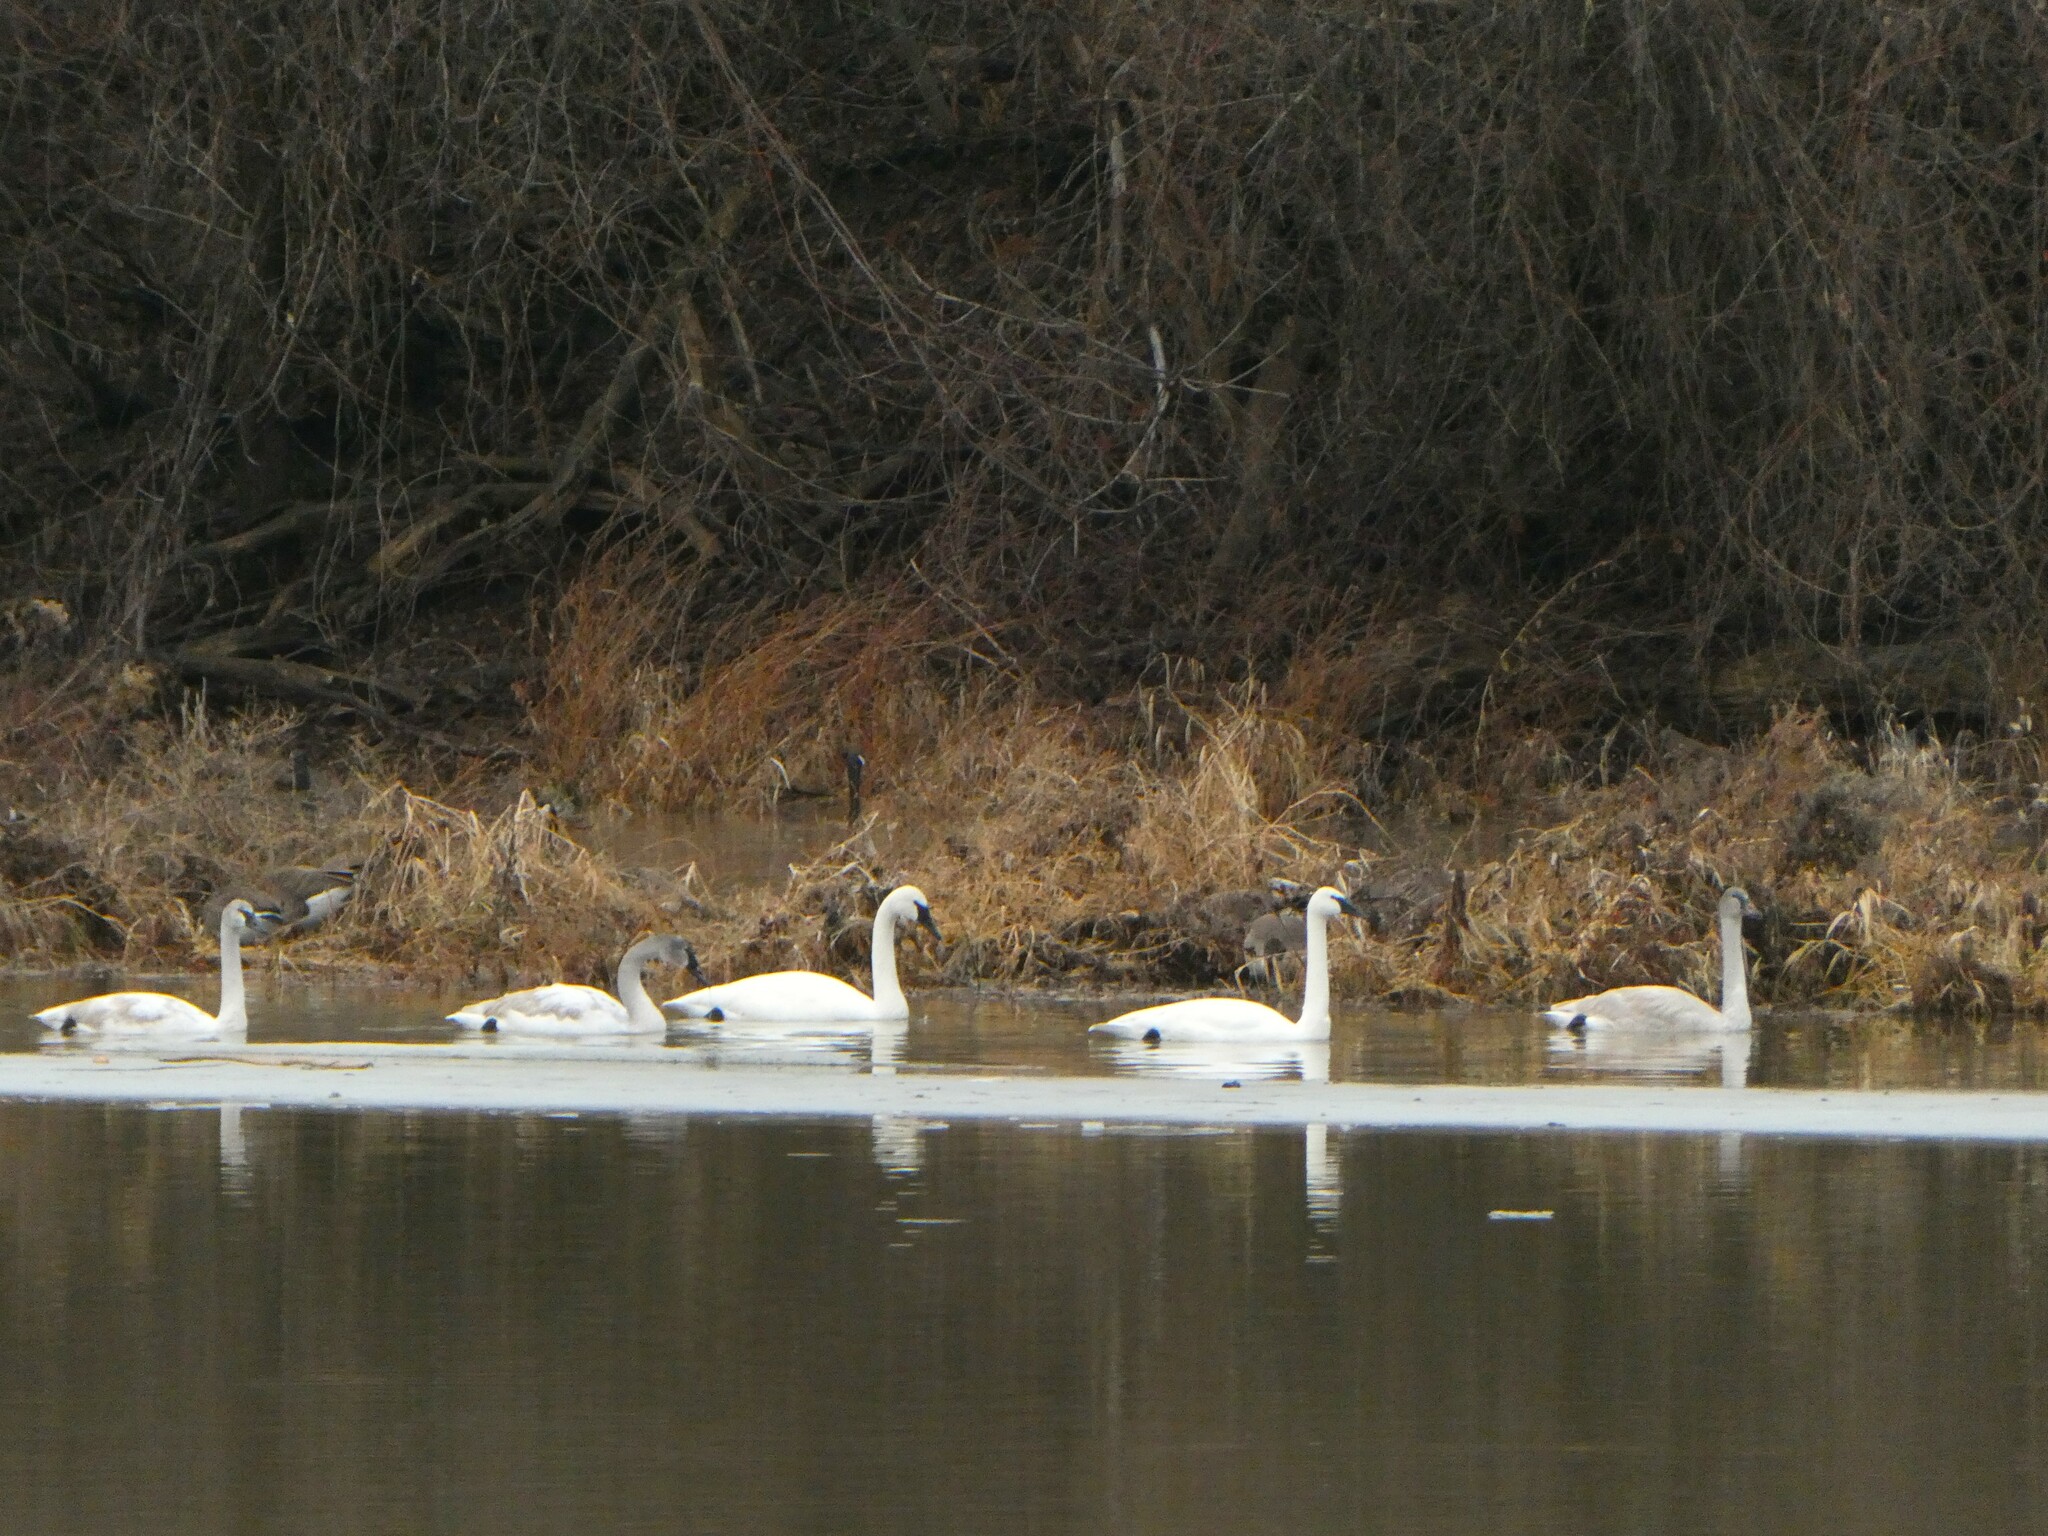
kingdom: Animalia
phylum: Chordata
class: Aves
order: Anseriformes
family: Anatidae
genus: Cygnus
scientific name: Cygnus buccinator
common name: Trumpeter swan
